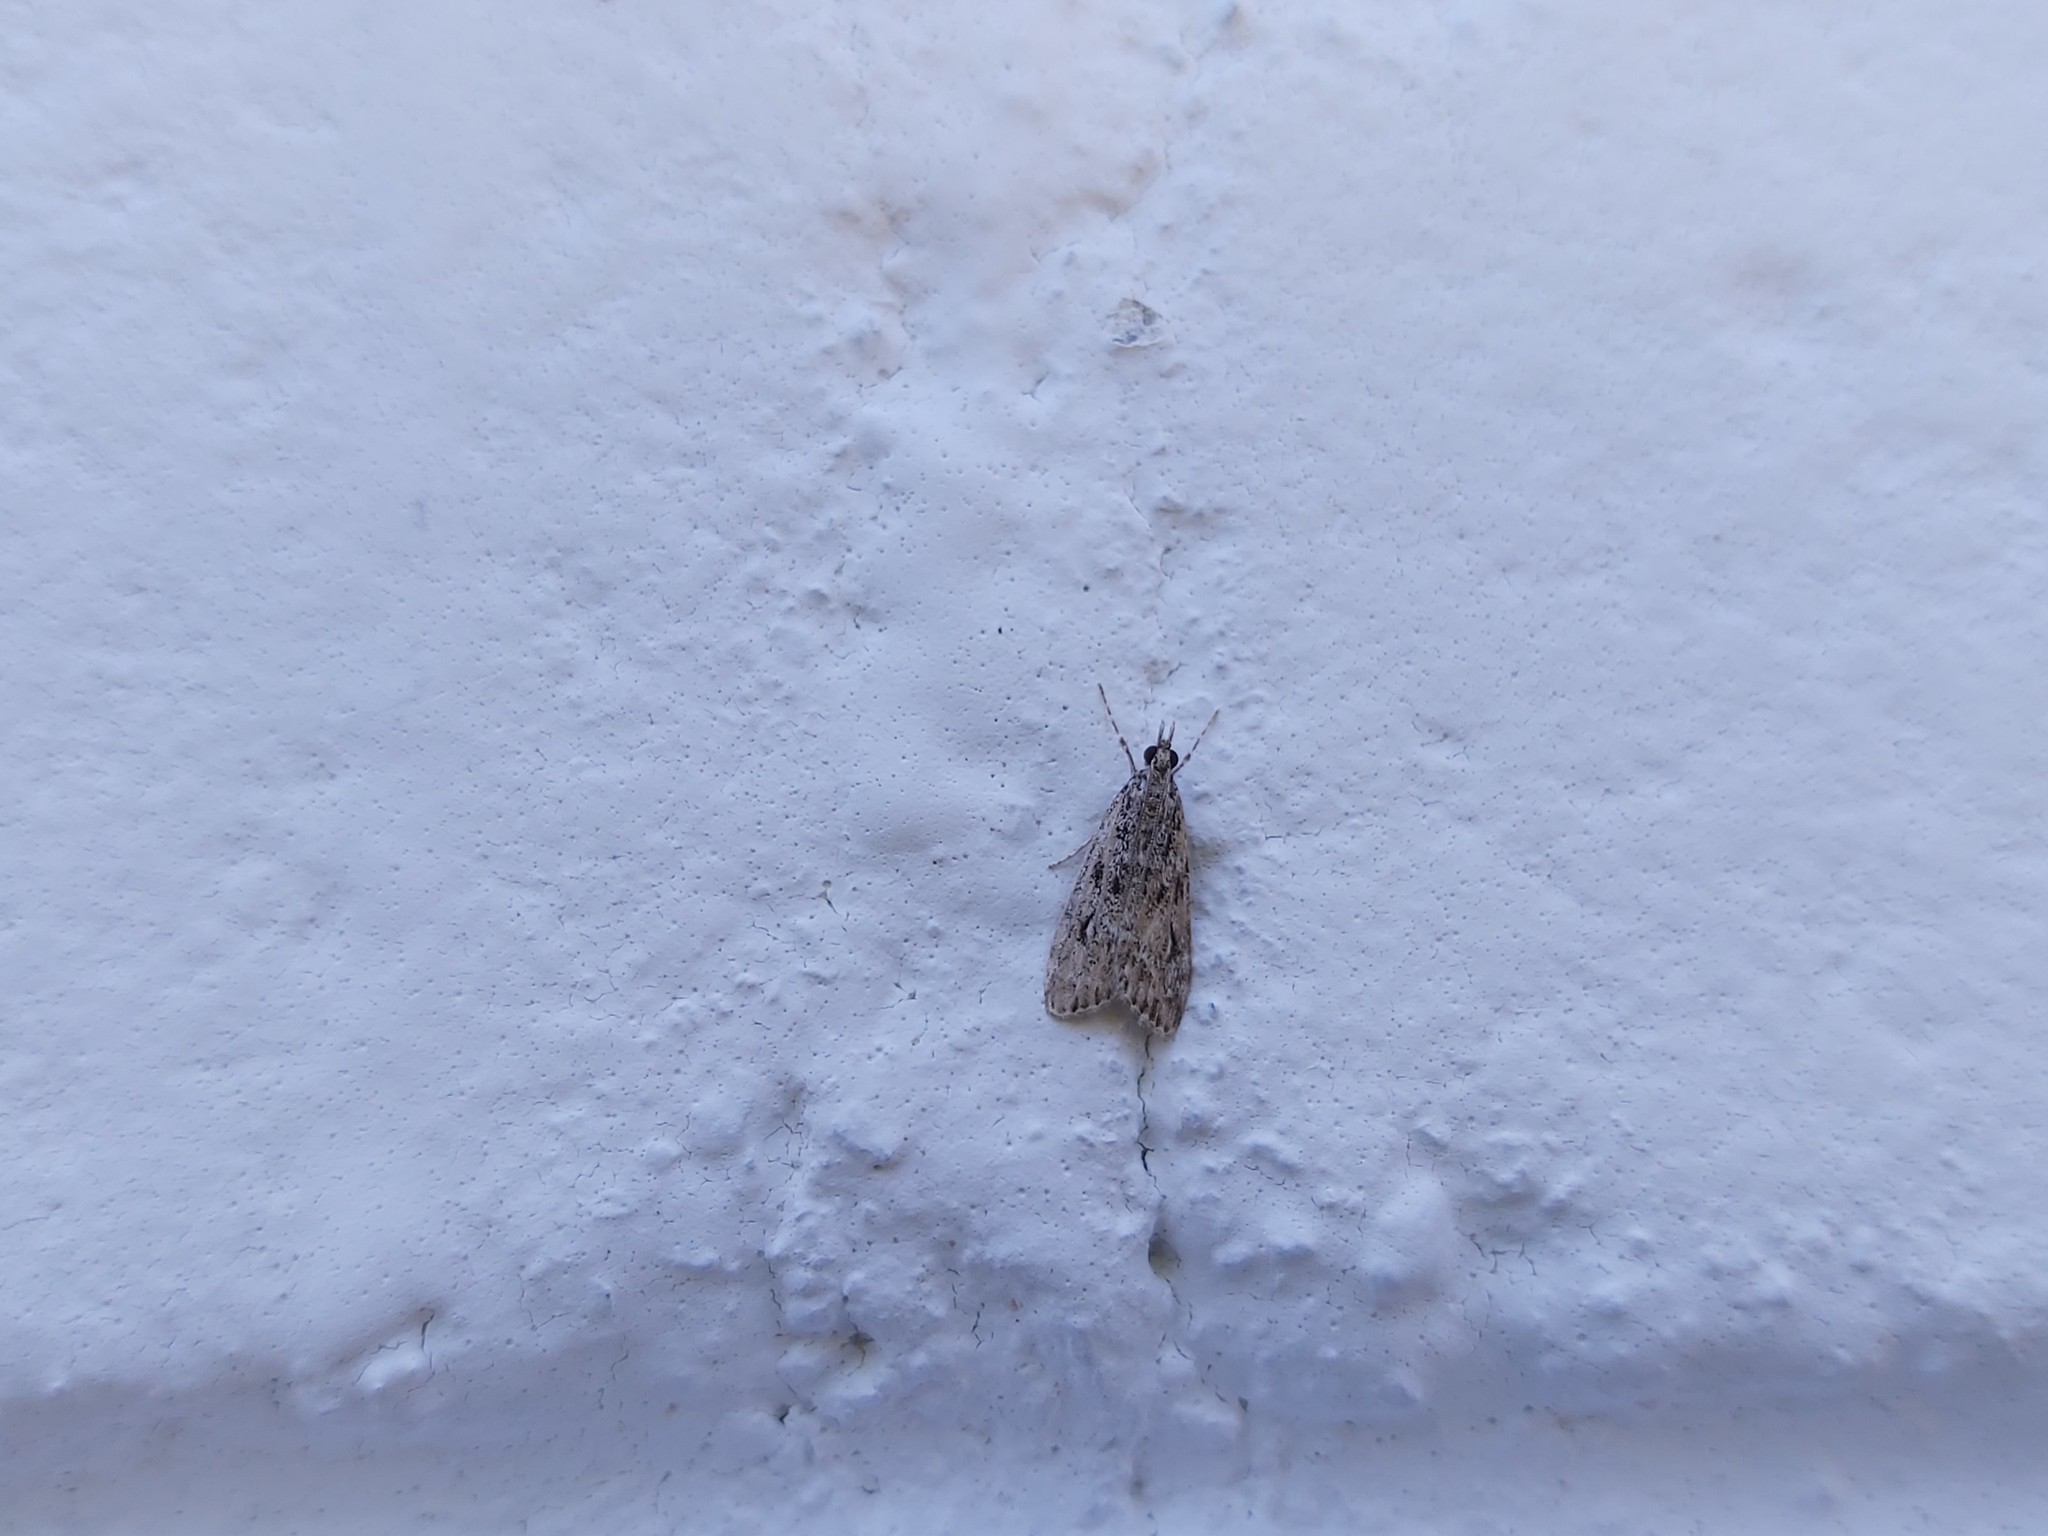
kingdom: Animalia
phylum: Arthropoda
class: Insecta
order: Lepidoptera
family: Crambidae
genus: Eudonia
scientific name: Eudonia truncicolella
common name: Ground-moss grey
